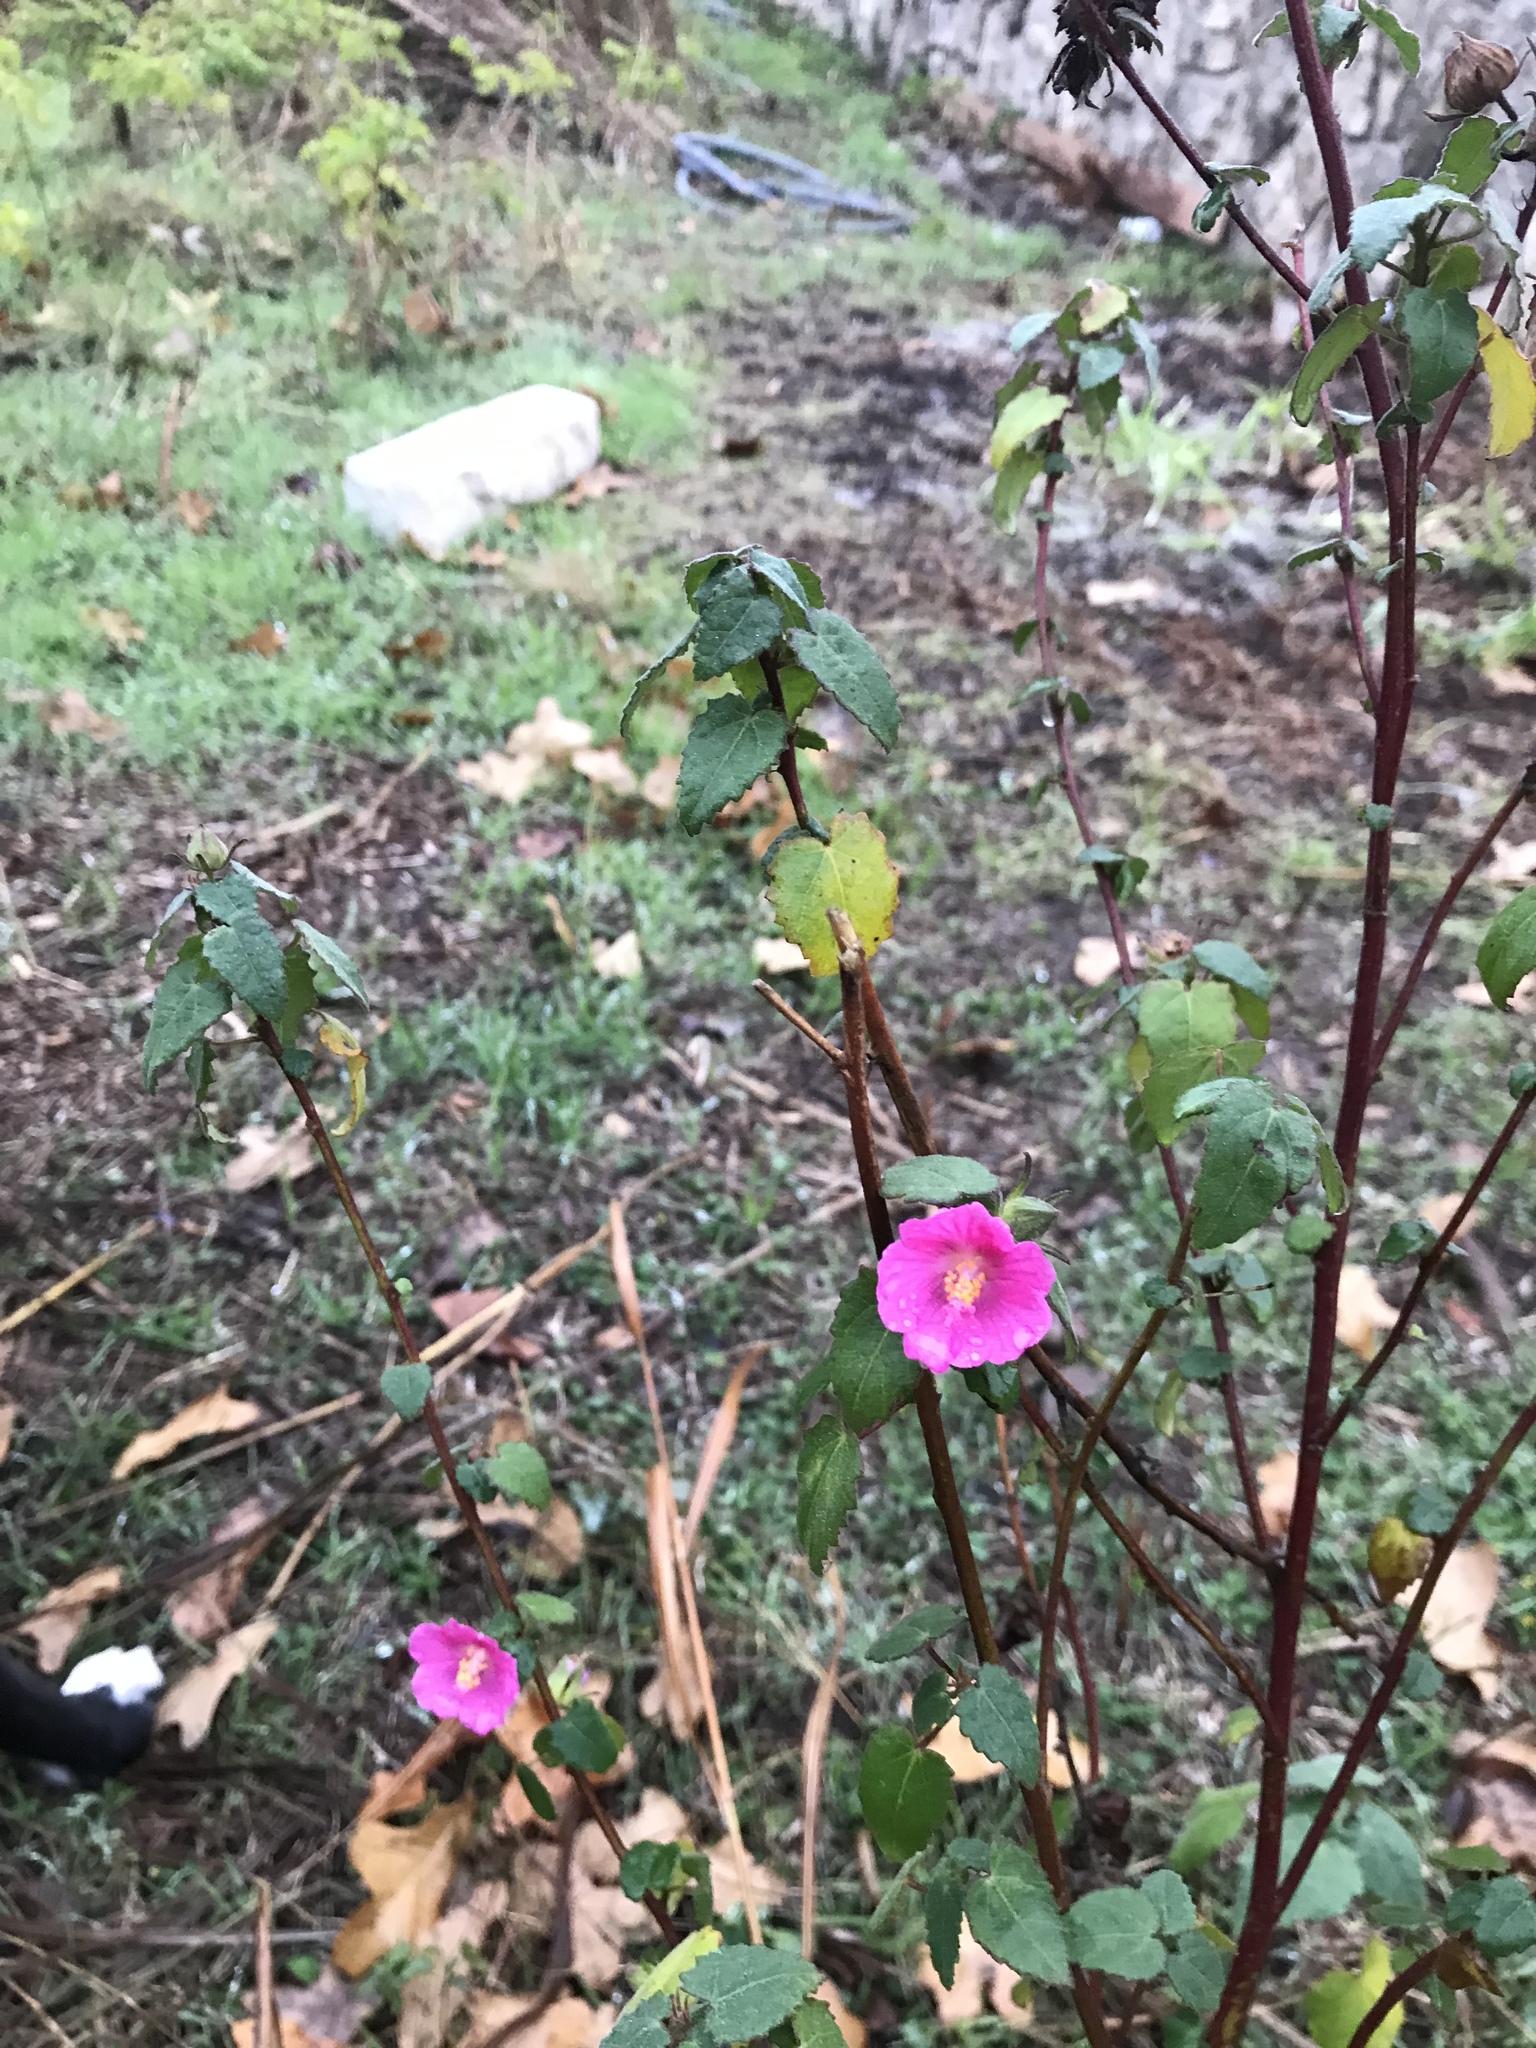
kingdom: Plantae
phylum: Tracheophyta
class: Magnoliopsida
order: Malvales
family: Malvaceae
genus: Pavonia
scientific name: Pavonia lasiopetala
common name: Texas swamp-mallow
